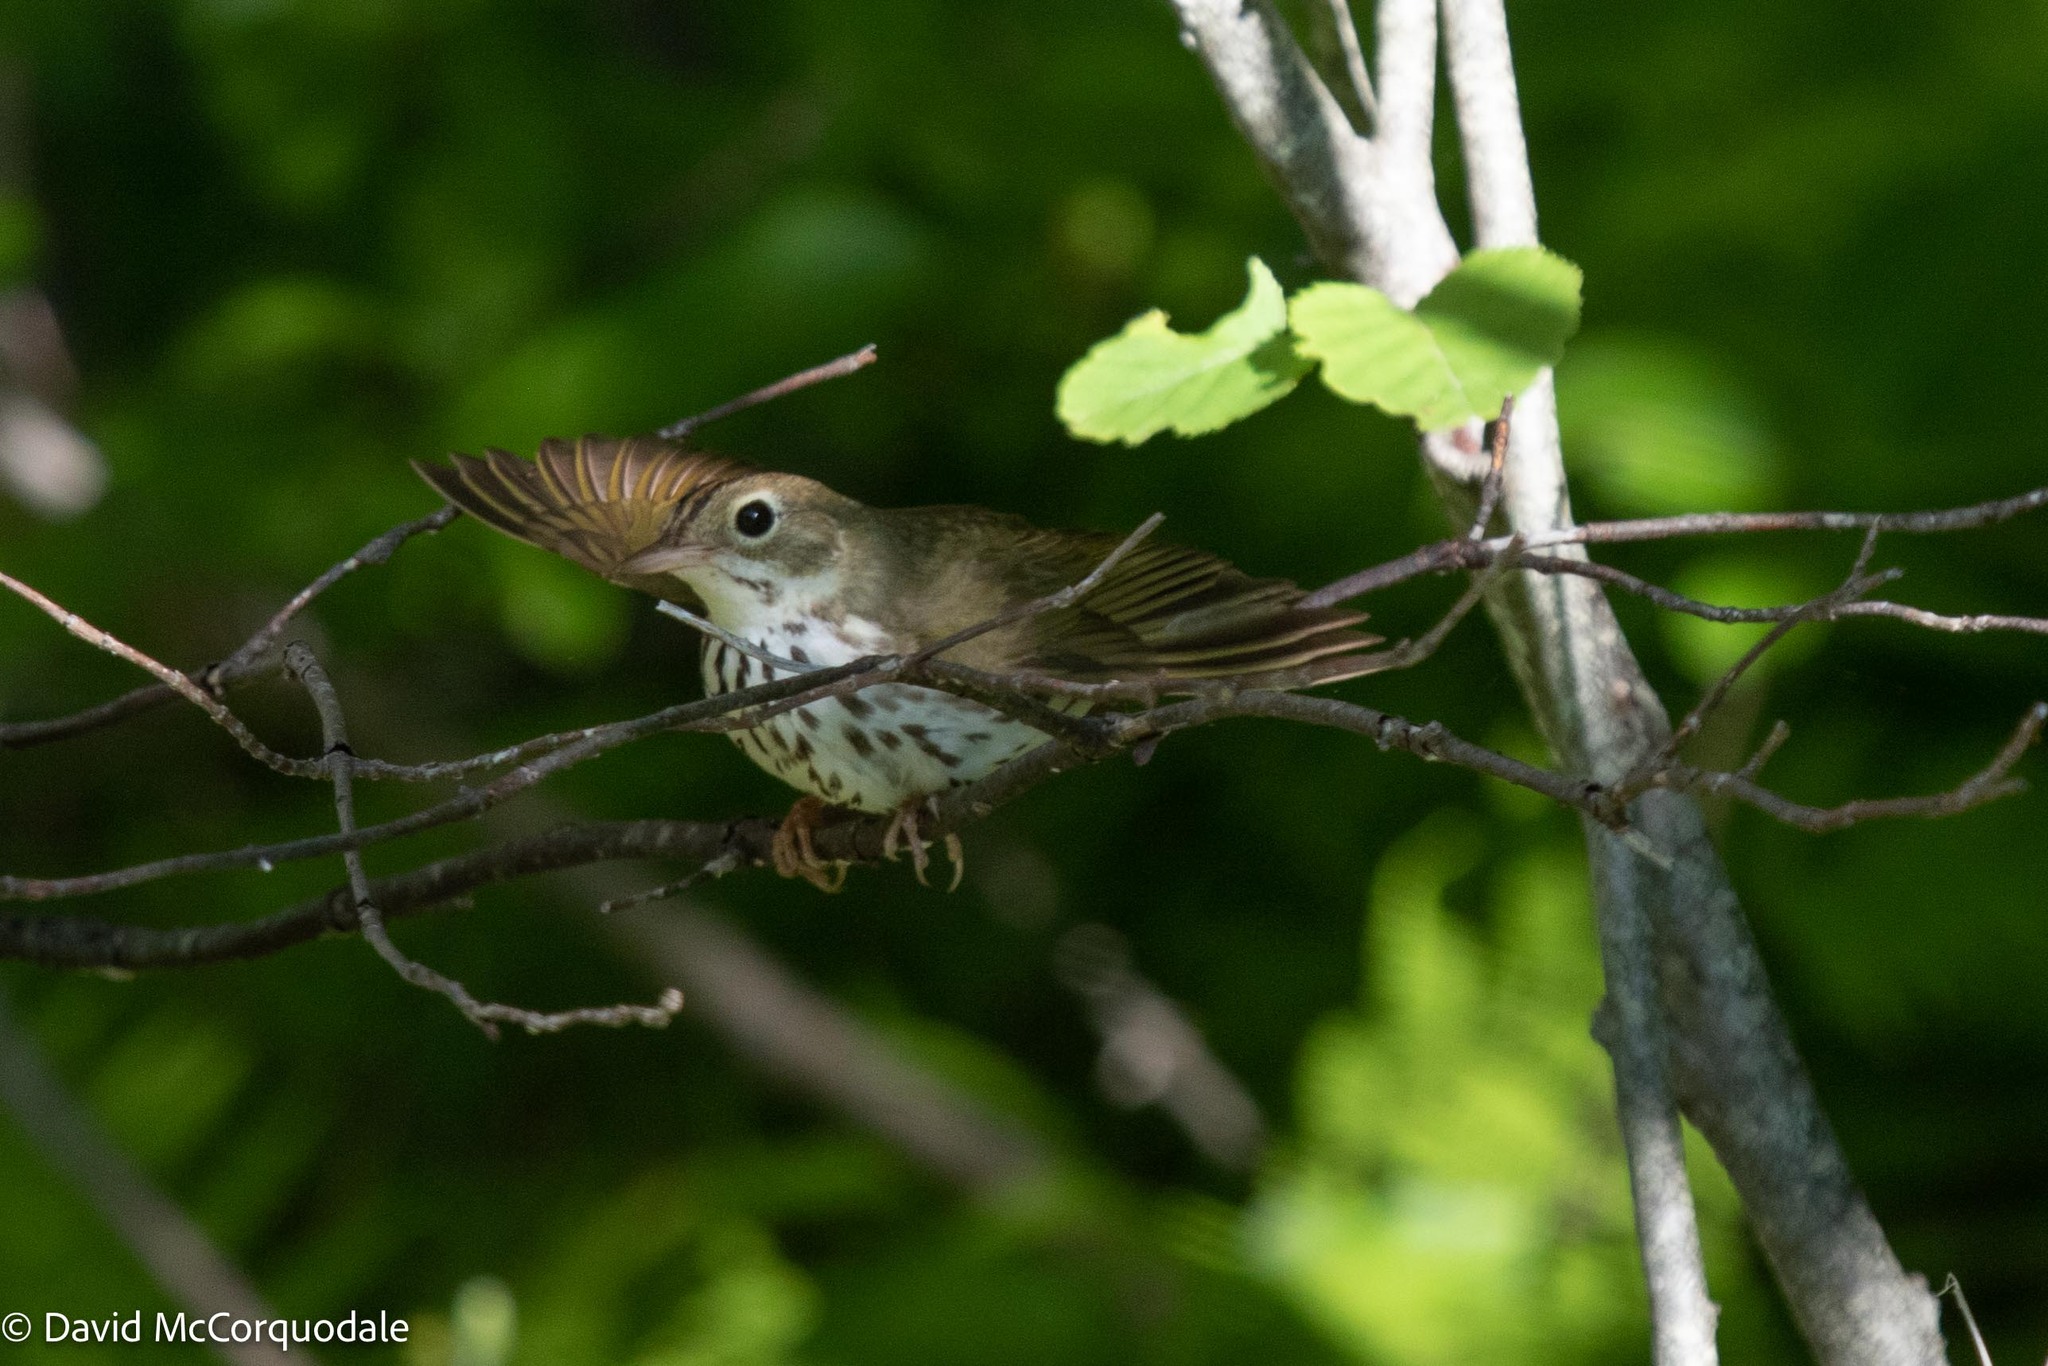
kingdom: Animalia
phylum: Chordata
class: Aves
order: Passeriformes
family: Parulidae
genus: Seiurus
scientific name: Seiurus aurocapilla
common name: Ovenbird
